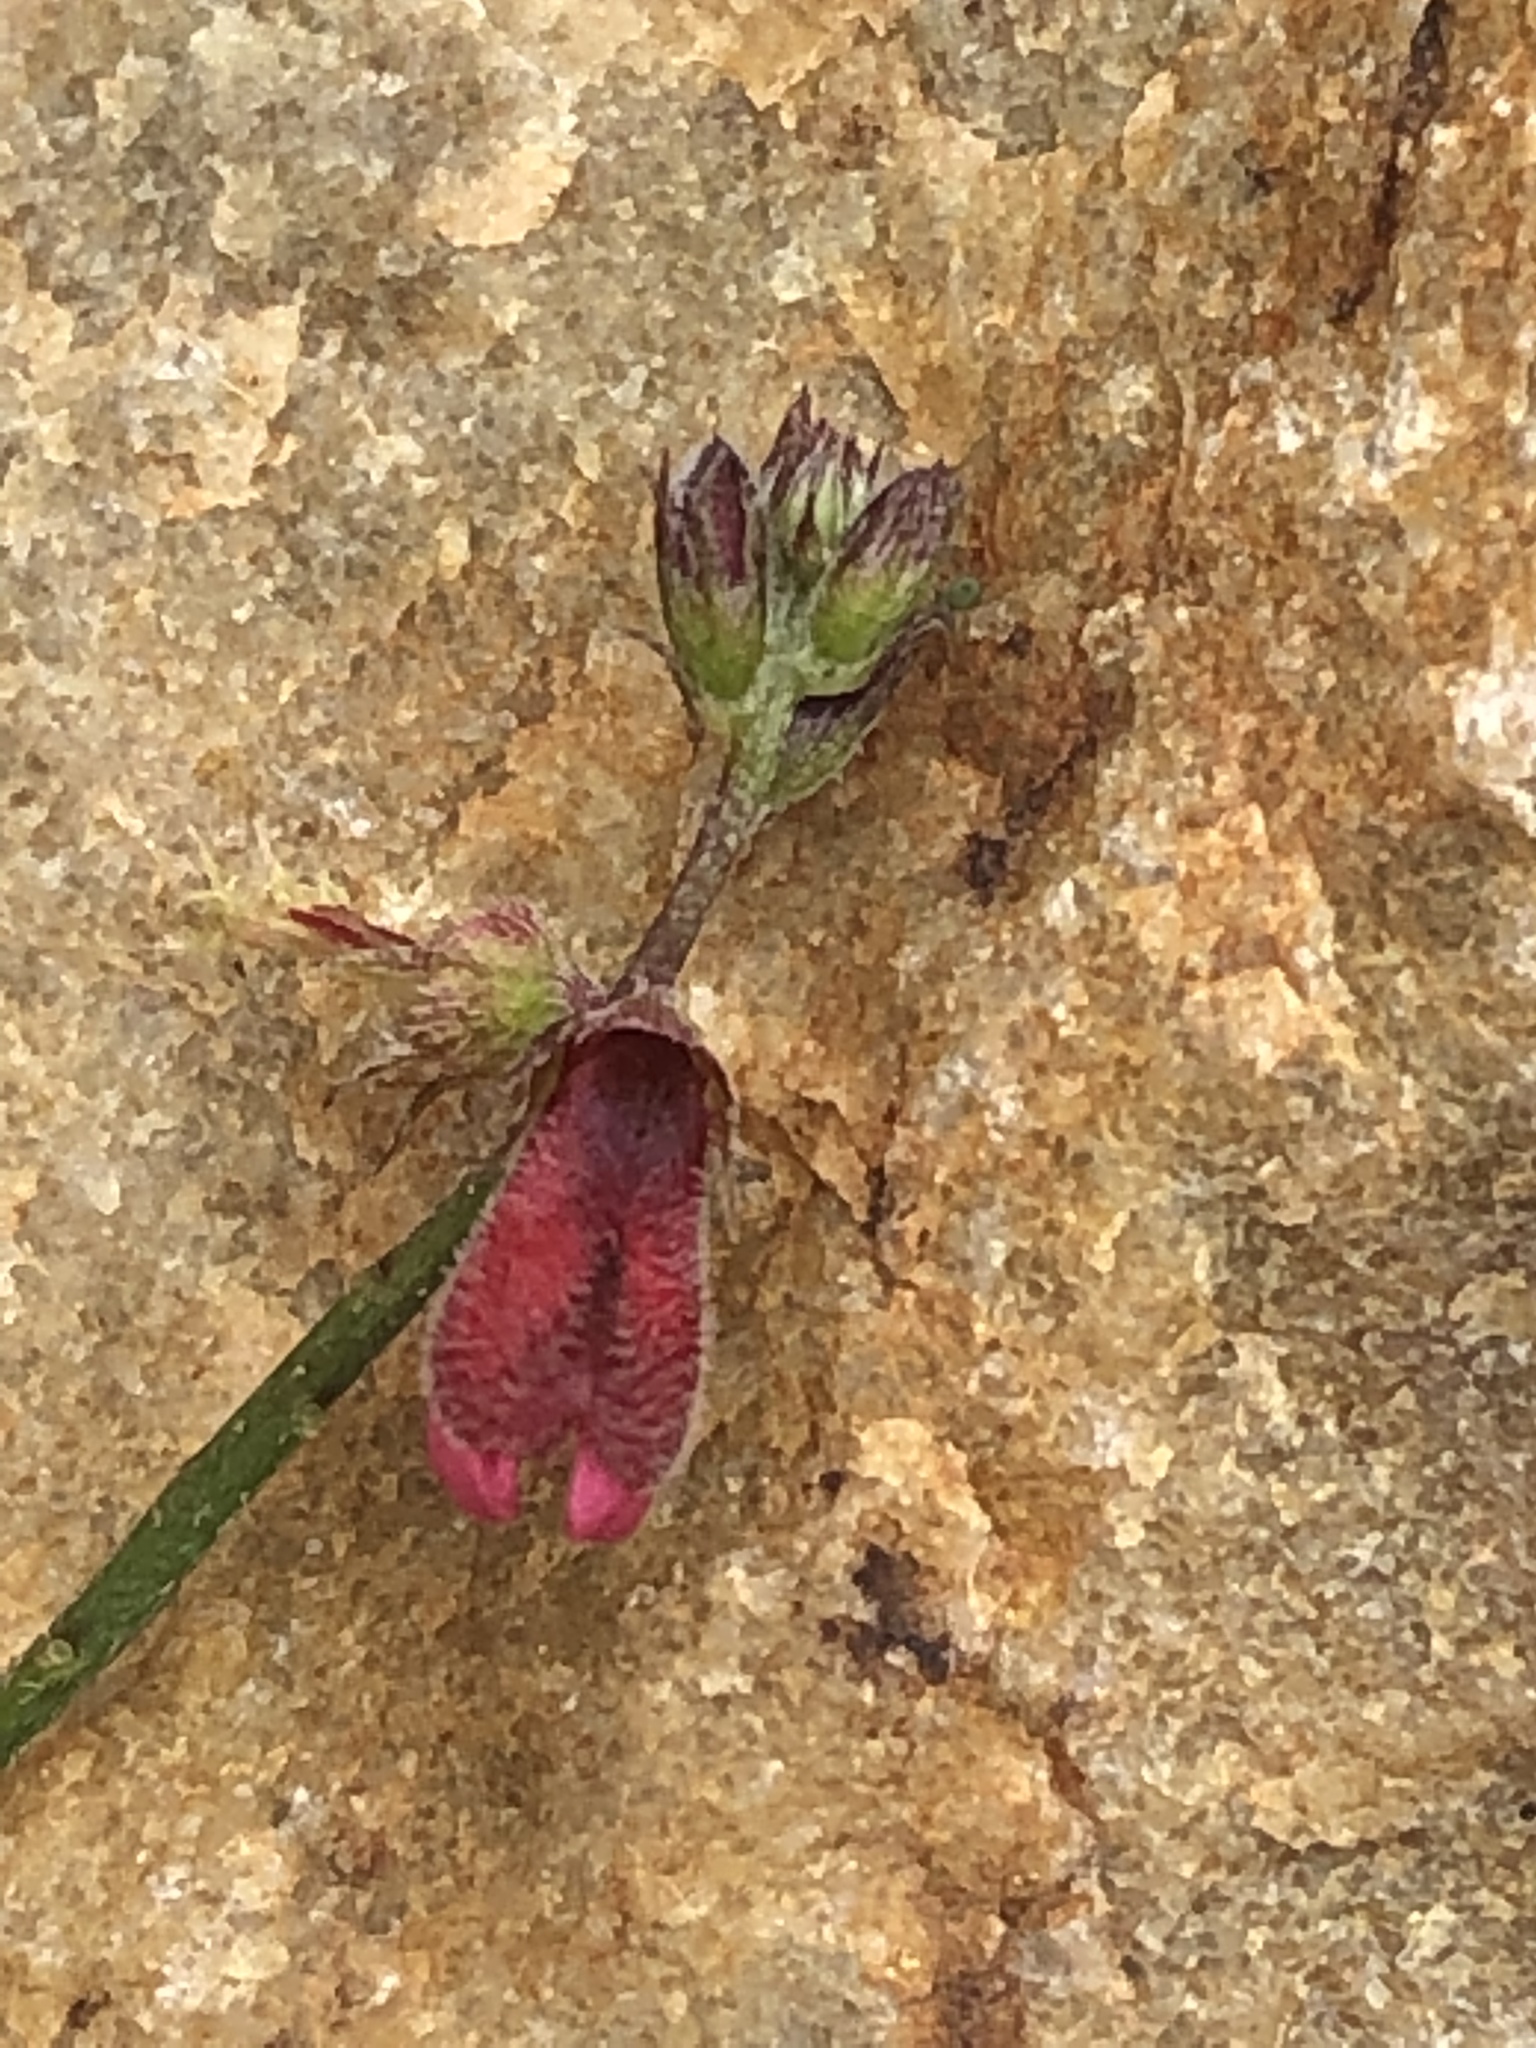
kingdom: Plantae
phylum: Tracheophyta
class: Magnoliopsida
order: Fabales
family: Fabaceae
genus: Indigofera
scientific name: Indigofera heterophylla
